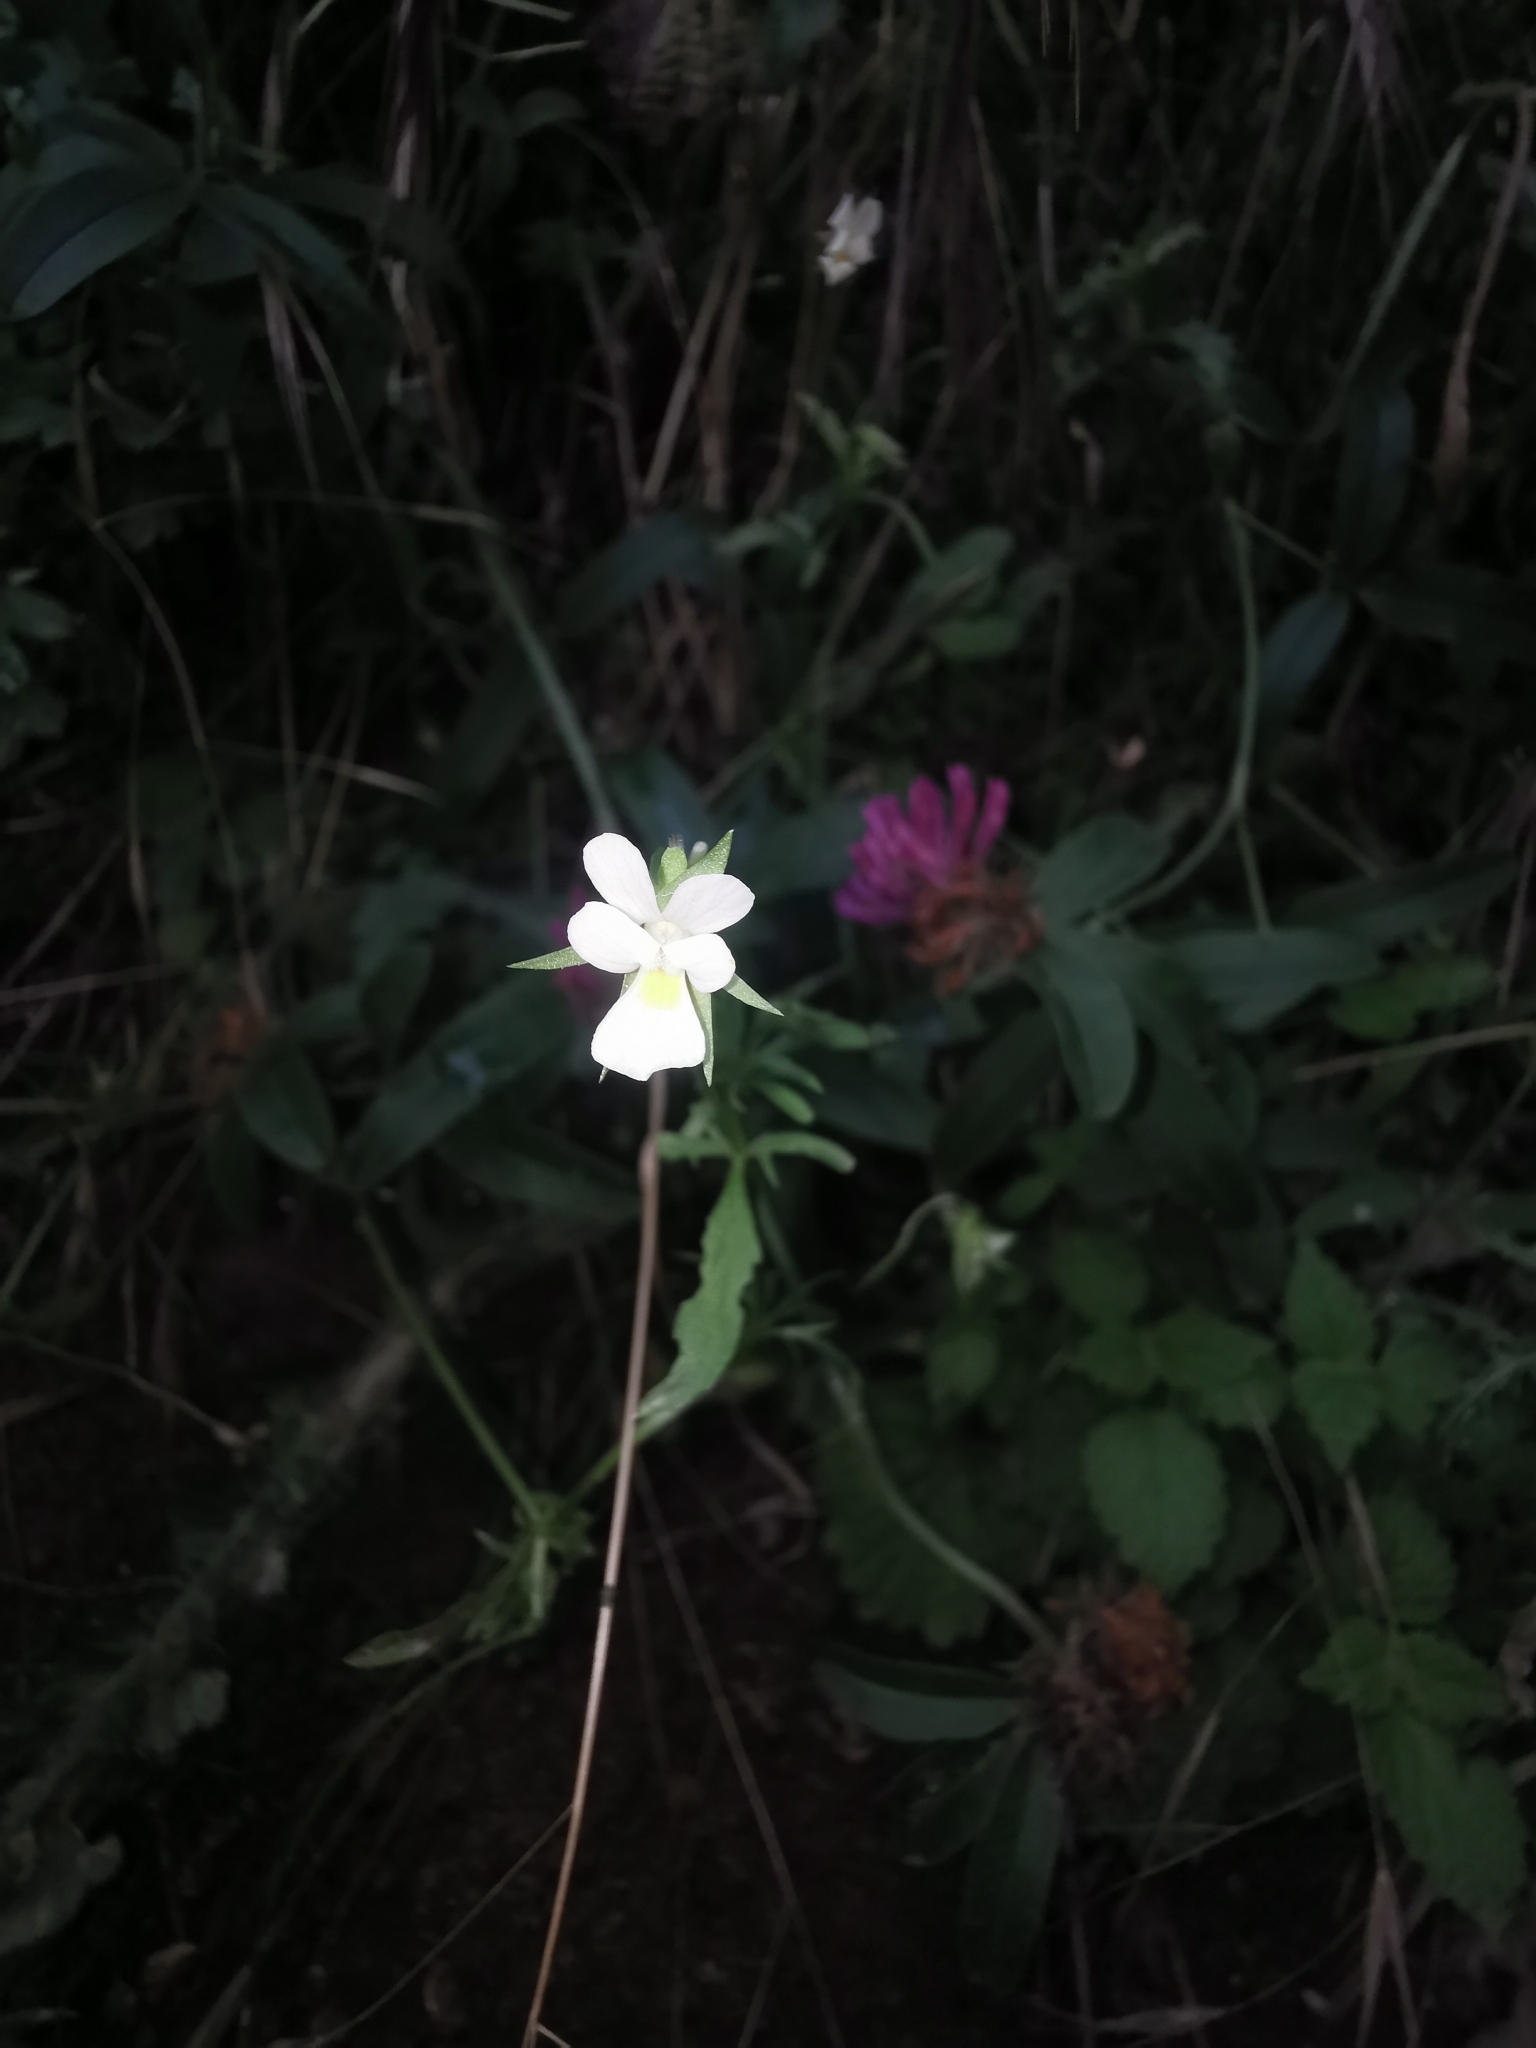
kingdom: Plantae
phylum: Tracheophyta
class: Magnoliopsida
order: Malpighiales
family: Violaceae
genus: Viola
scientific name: Viola arvensis
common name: Field pansy
